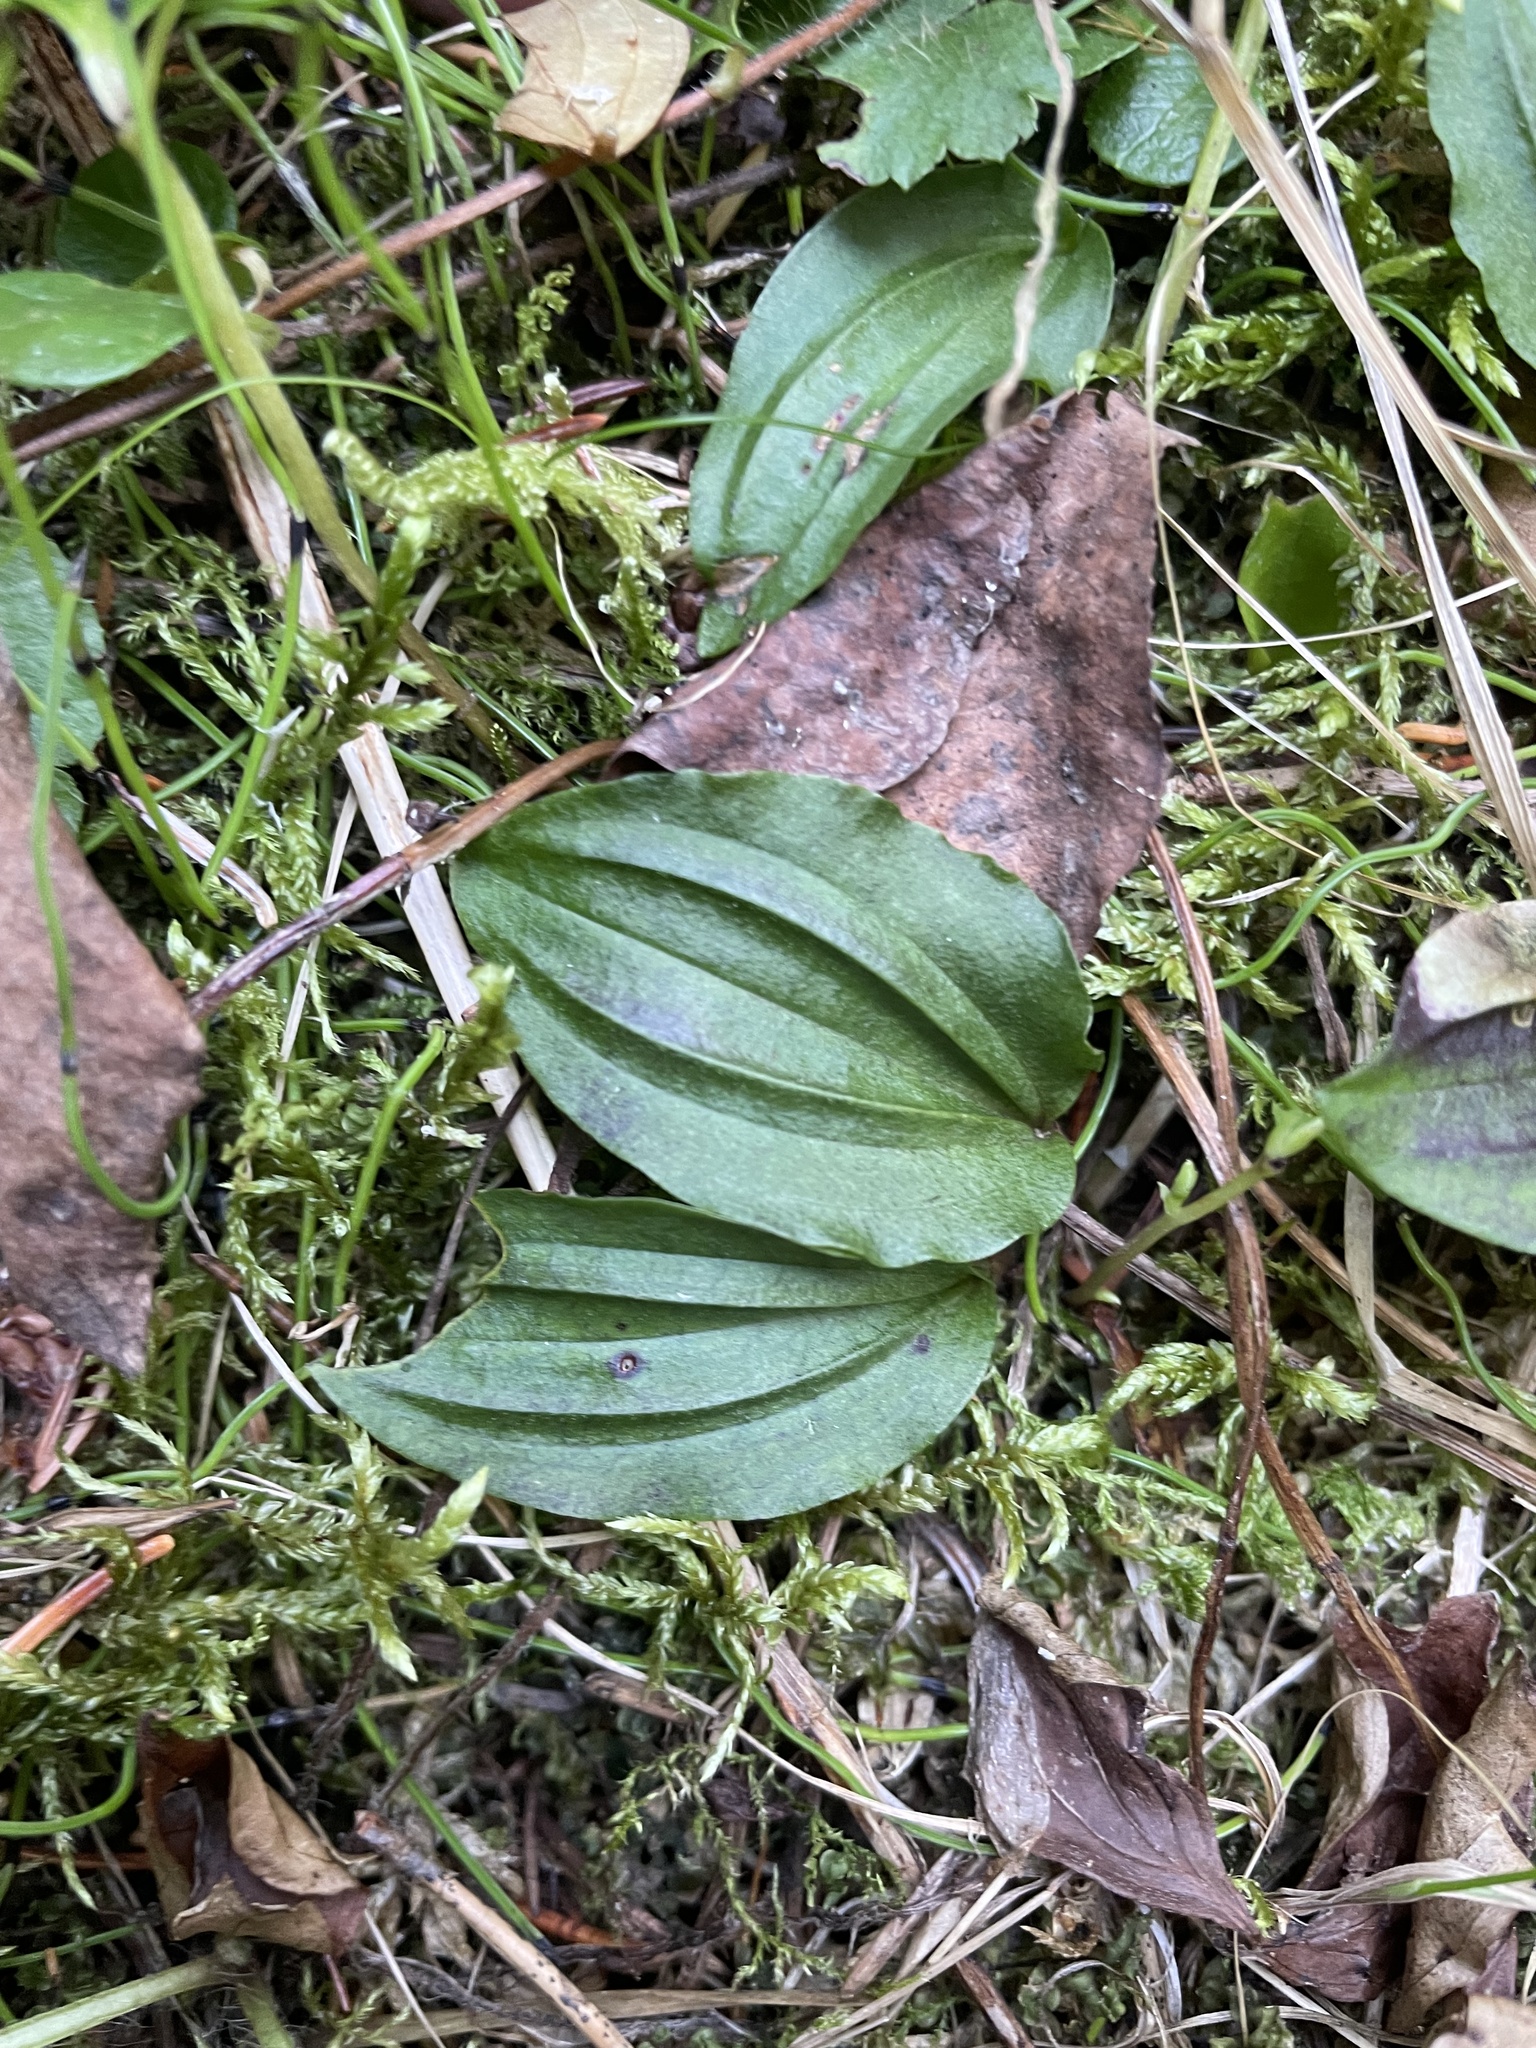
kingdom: Plantae
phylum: Tracheophyta
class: Liliopsida
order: Asparagales
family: Orchidaceae
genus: Calypso
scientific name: Calypso bulbosa
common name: Calypso
